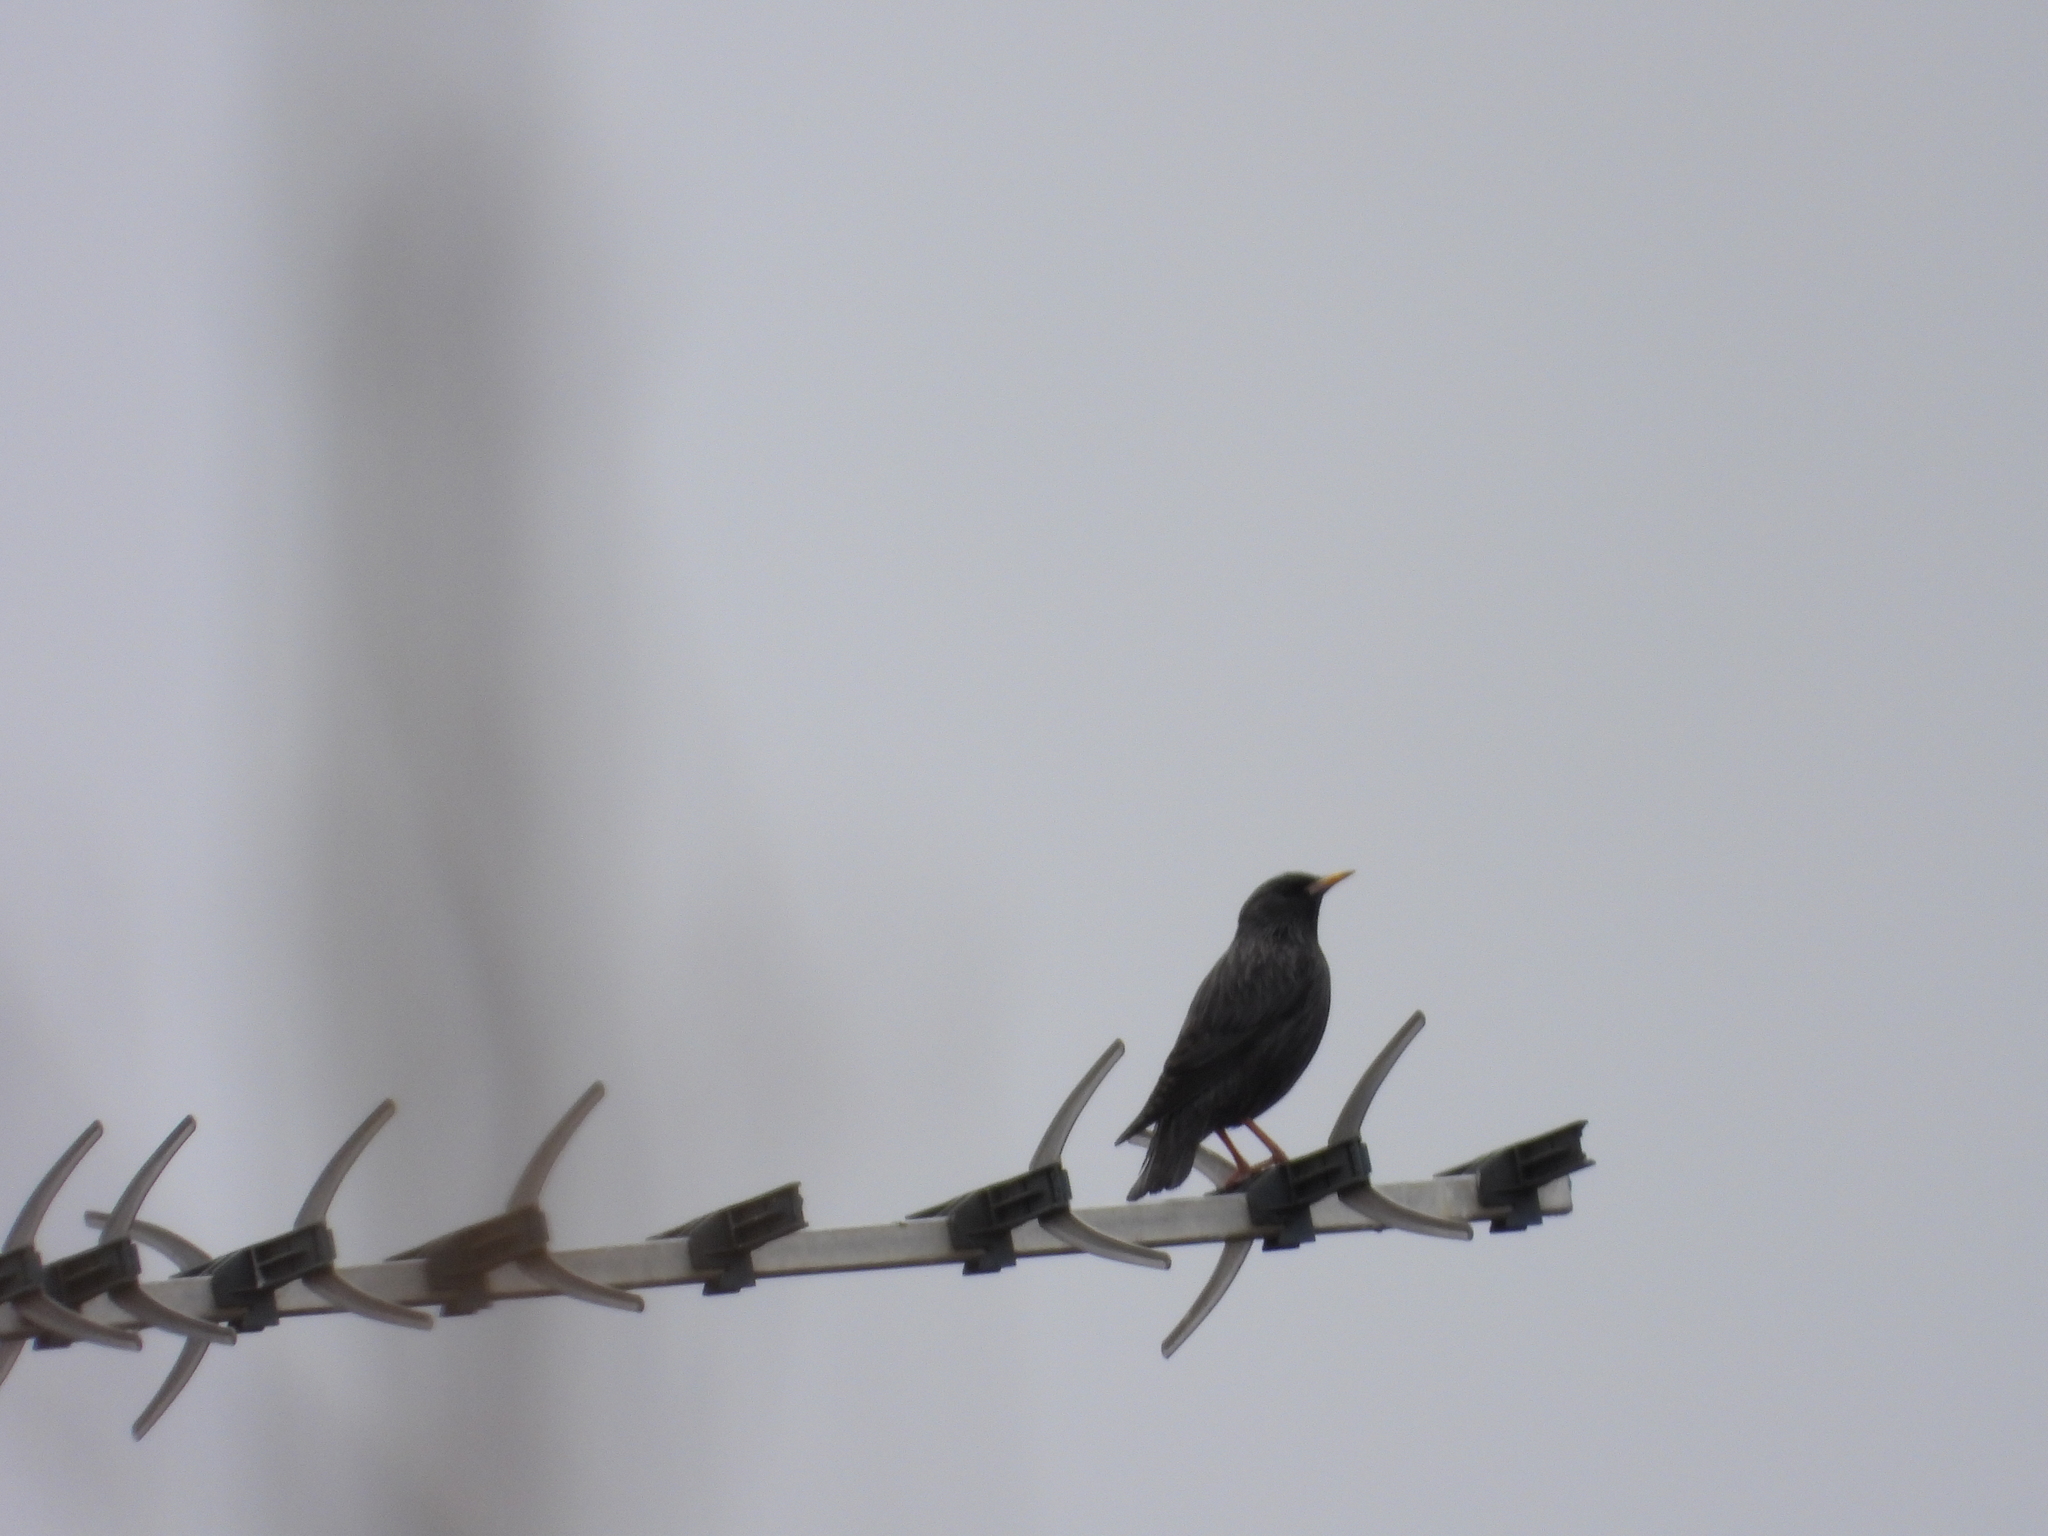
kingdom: Animalia
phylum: Chordata
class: Aves
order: Passeriformes
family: Sturnidae
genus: Sturnus
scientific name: Sturnus unicolor
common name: Spotless starling
